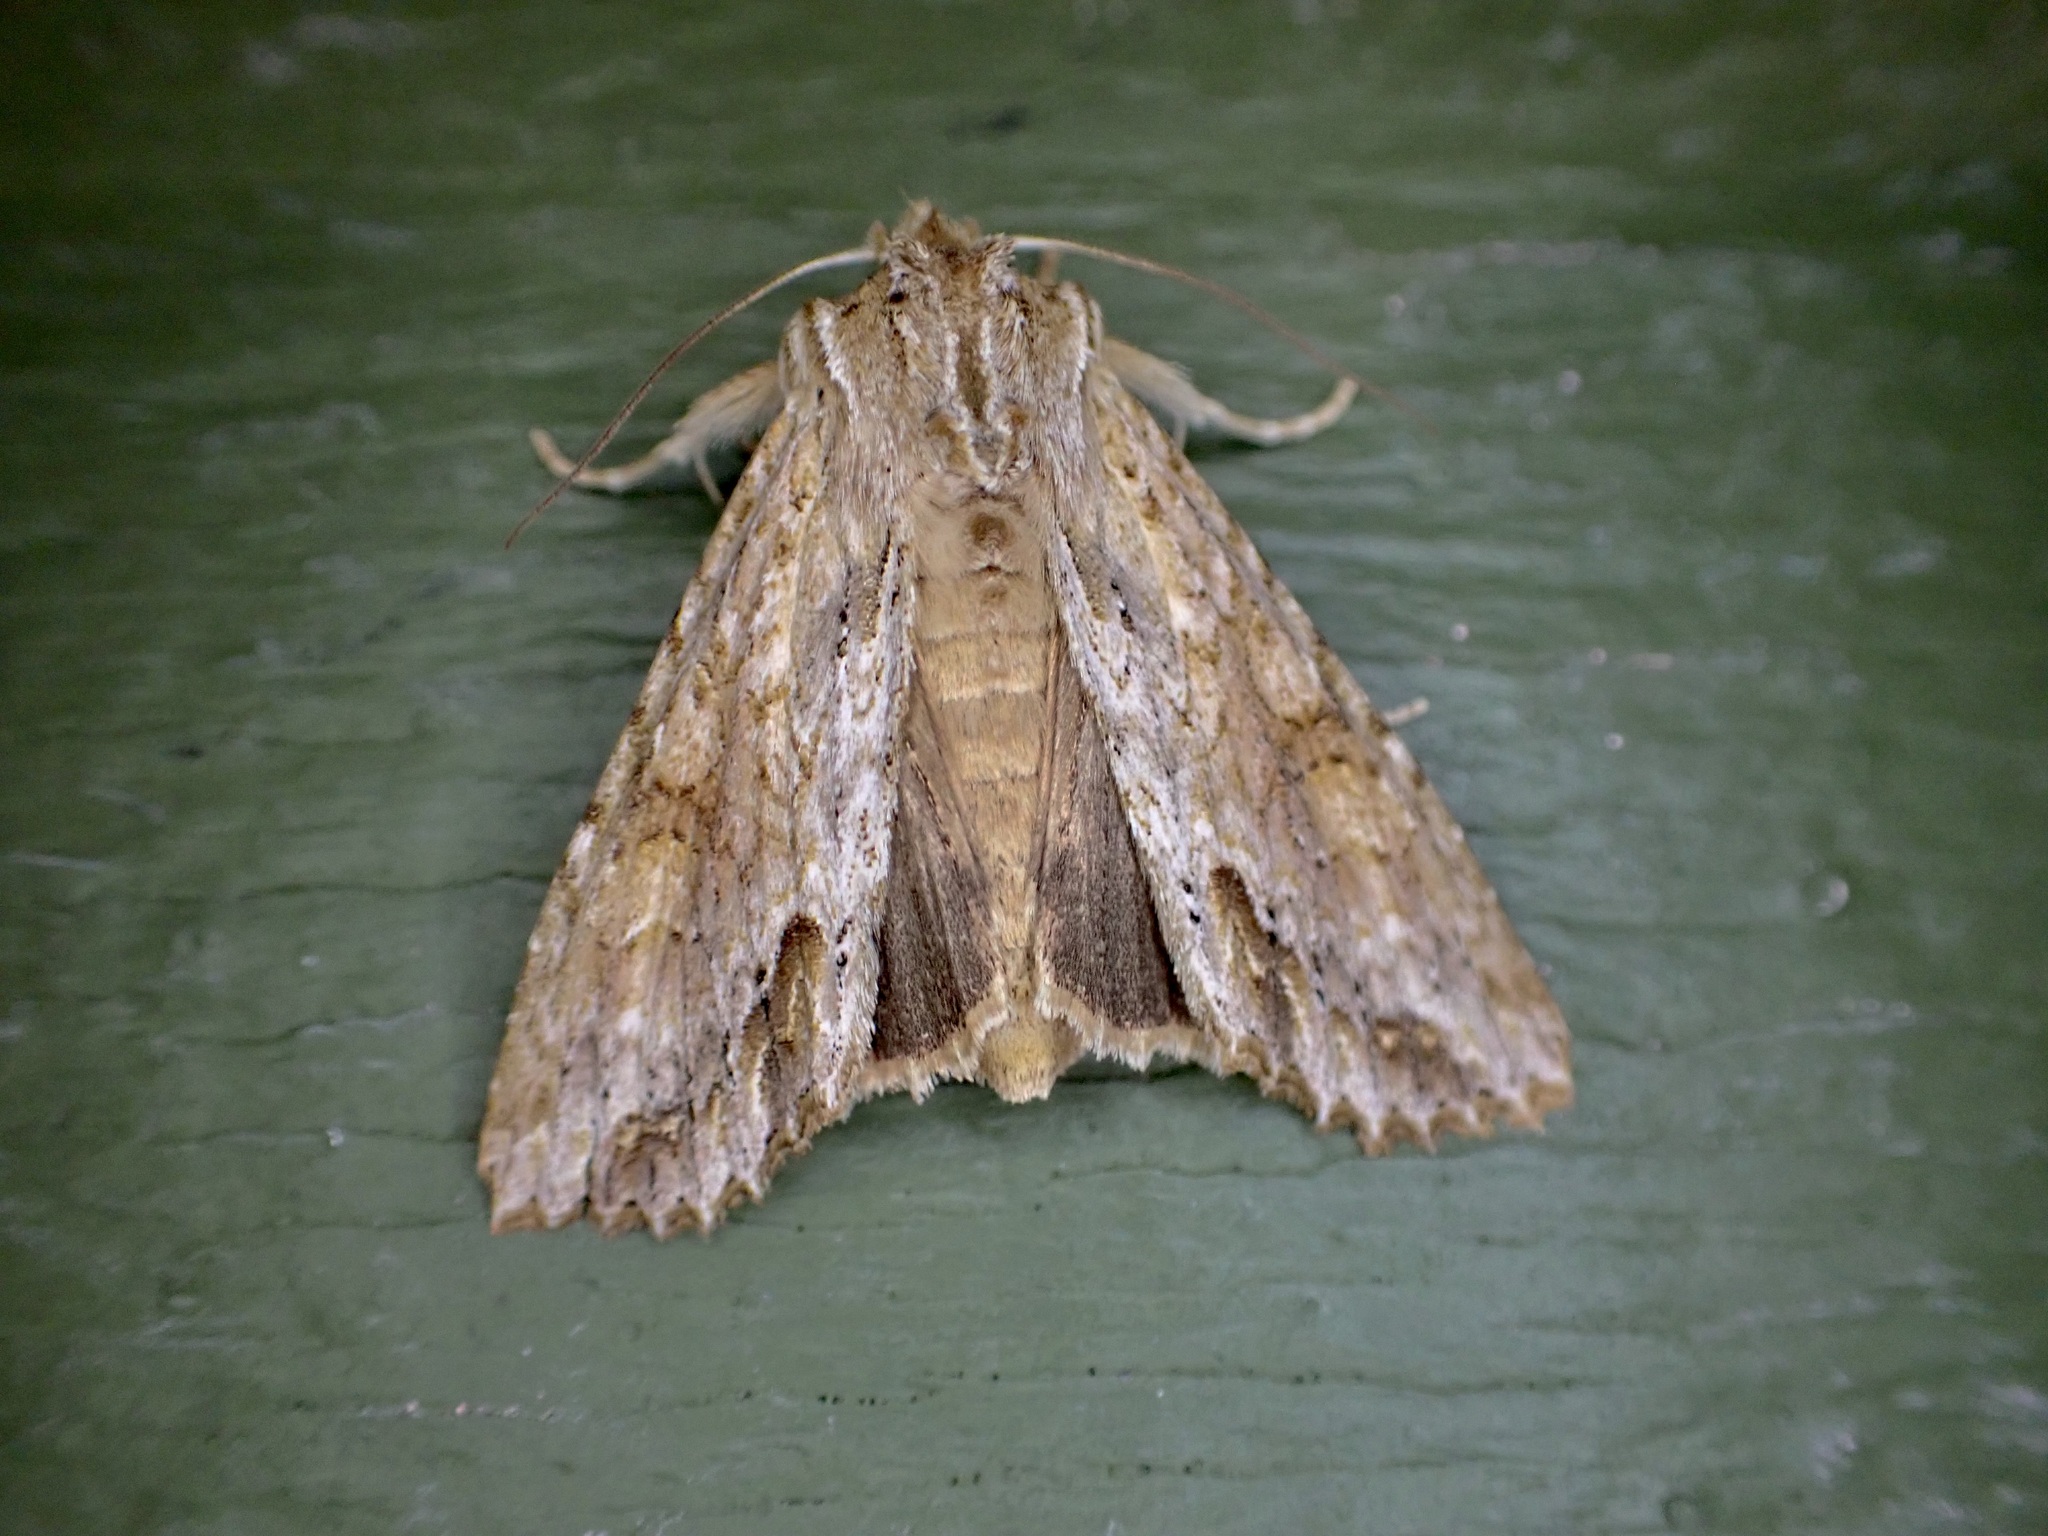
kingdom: Animalia
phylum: Arthropoda
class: Insecta
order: Lepidoptera
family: Noctuidae
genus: Ichneutica
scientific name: Ichneutica mollis
